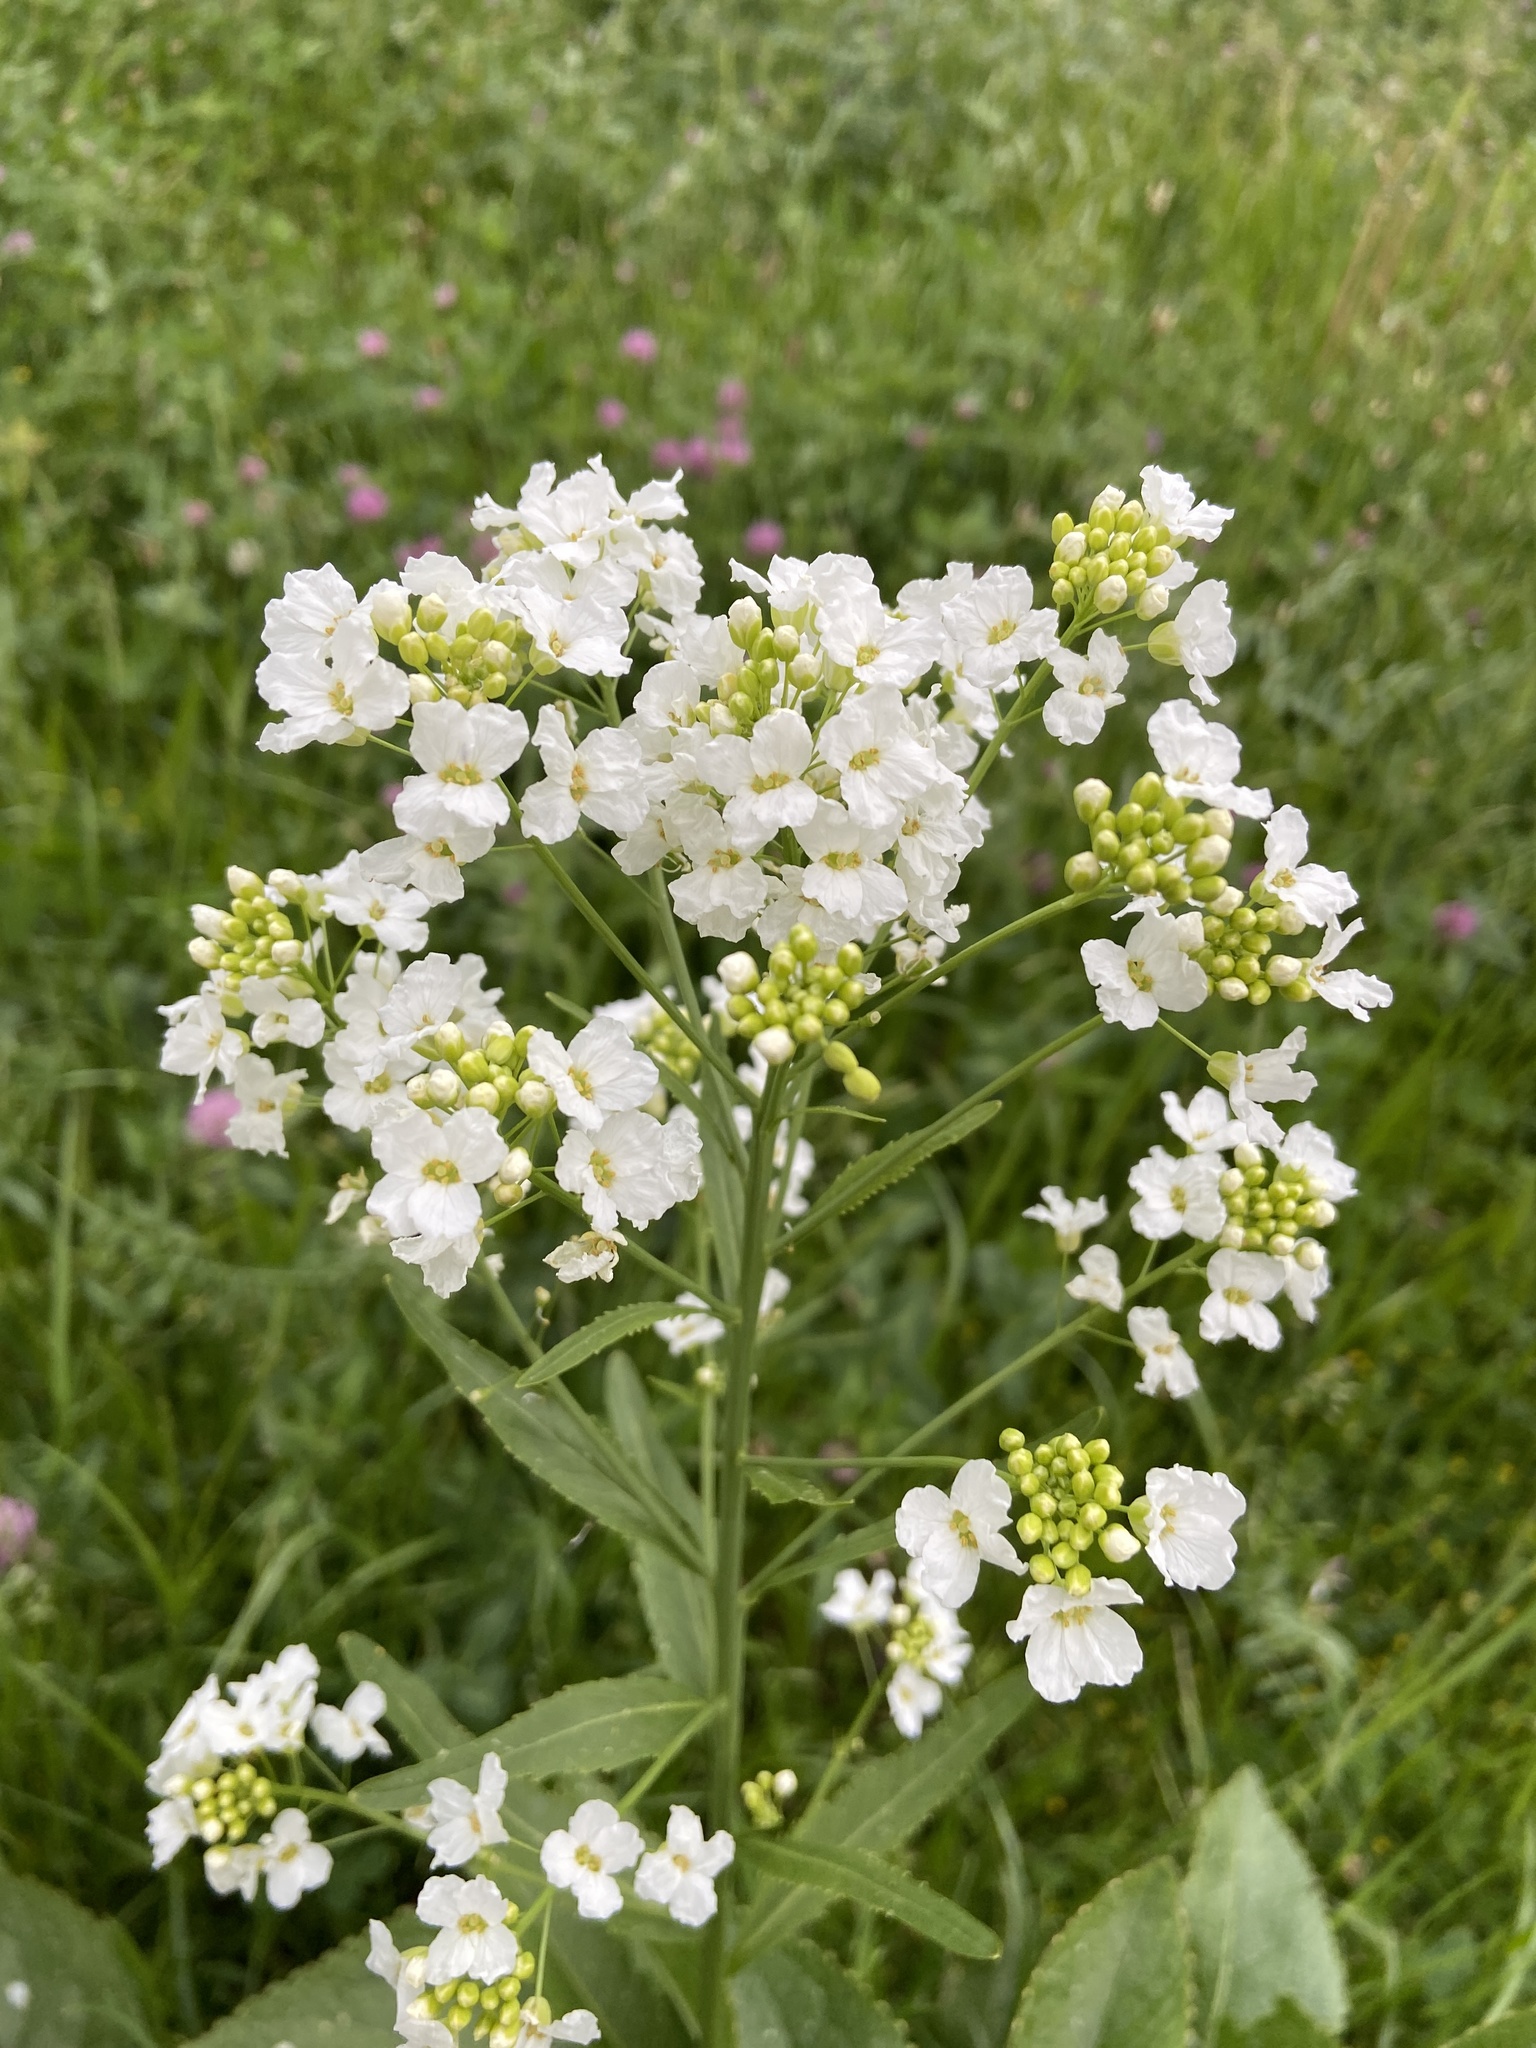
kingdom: Plantae
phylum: Tracheophyta
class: Magnoliopsida
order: Brassicales
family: Brassicaceae
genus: Armoracia
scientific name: Armoracia rusticana
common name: Horseradish
